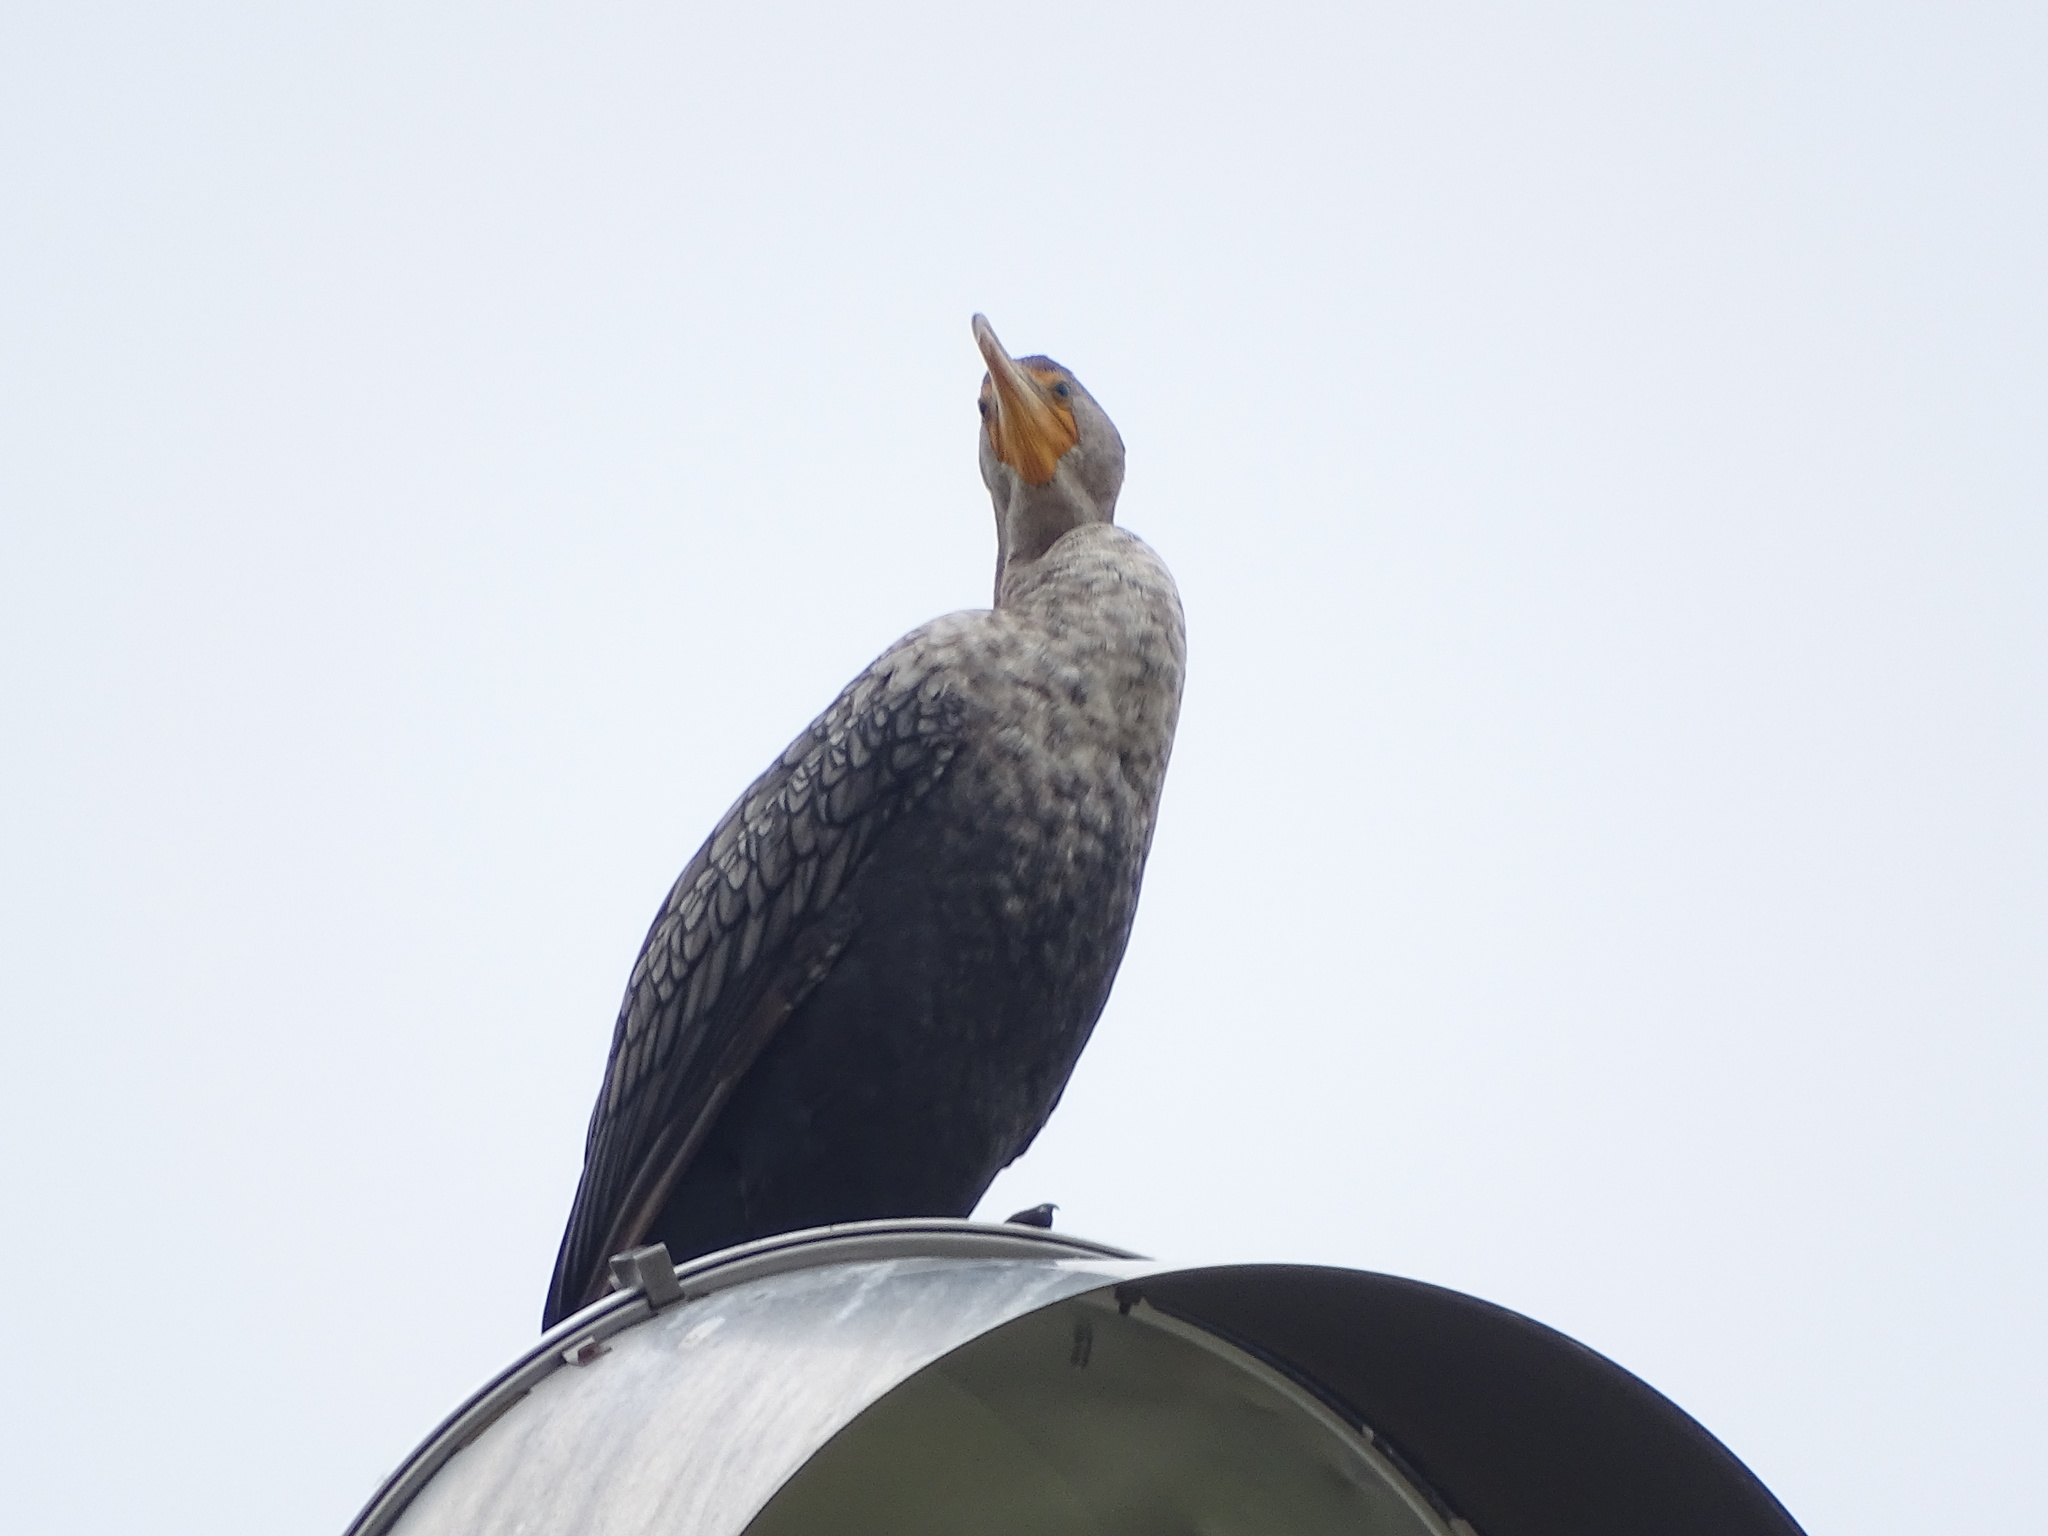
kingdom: Animalia
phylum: Chordata
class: Aves
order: Suliformes
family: Phalacrocoracidae
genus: Phalacrocorax
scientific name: Phalacrocorax auritus
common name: Double-crested cormorant
